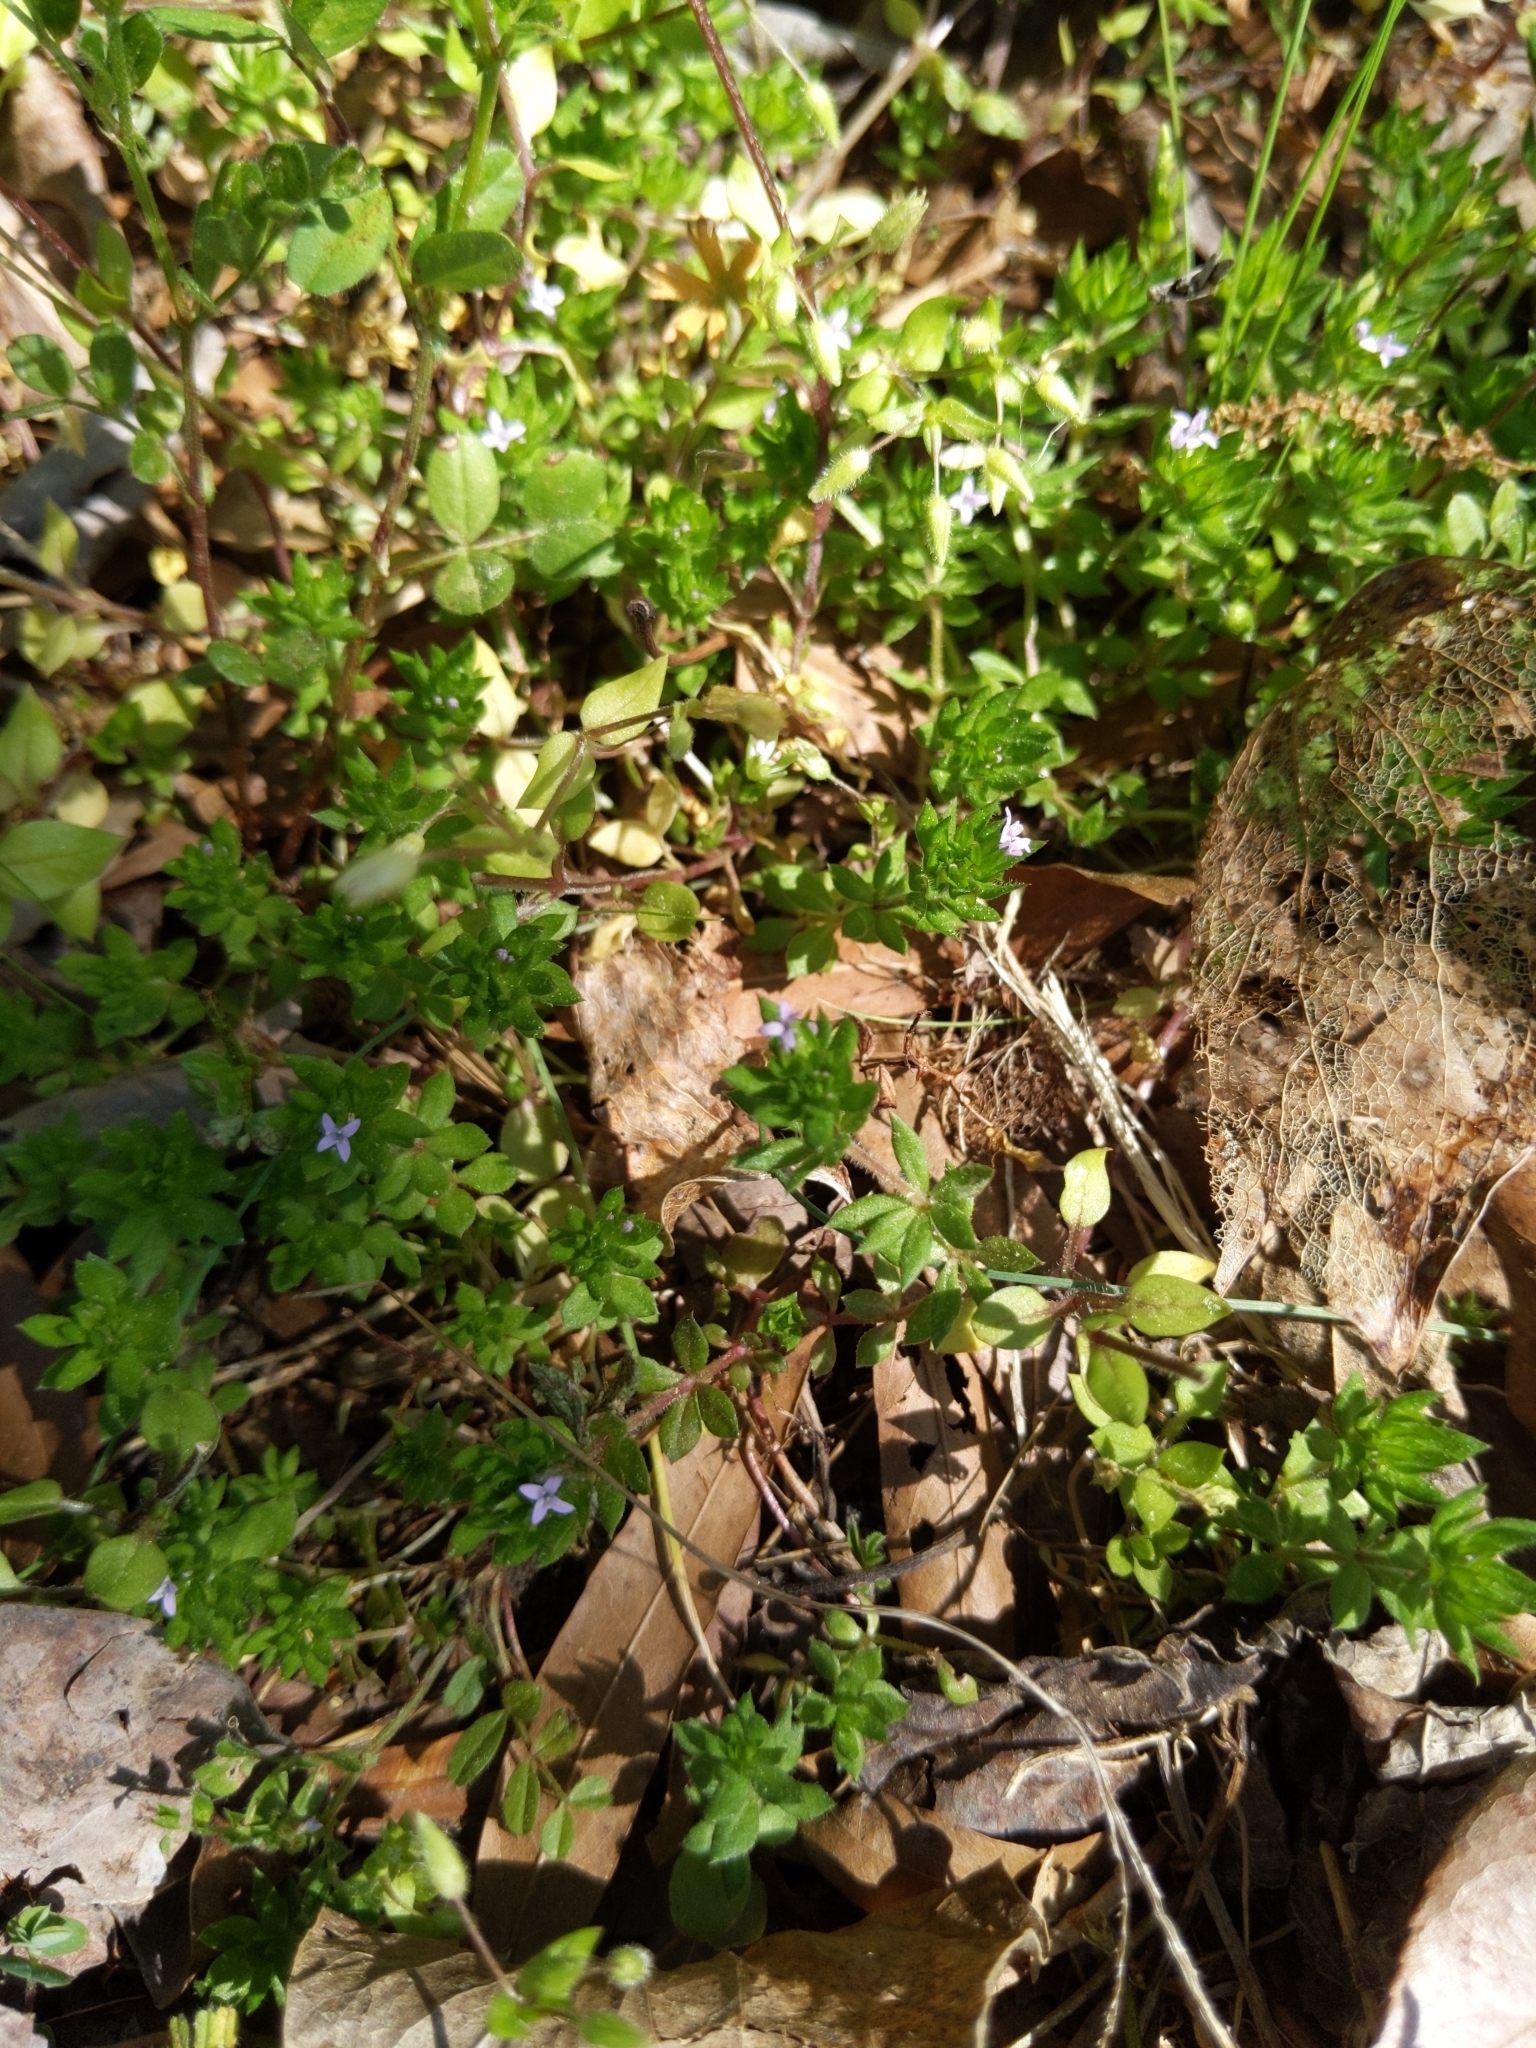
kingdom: Plantae
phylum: Tracheophyta
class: Magnoliopsida
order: Gentianales
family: Rubiaceae
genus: Sherardia
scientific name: Sherardia arvensis
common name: Field madder
